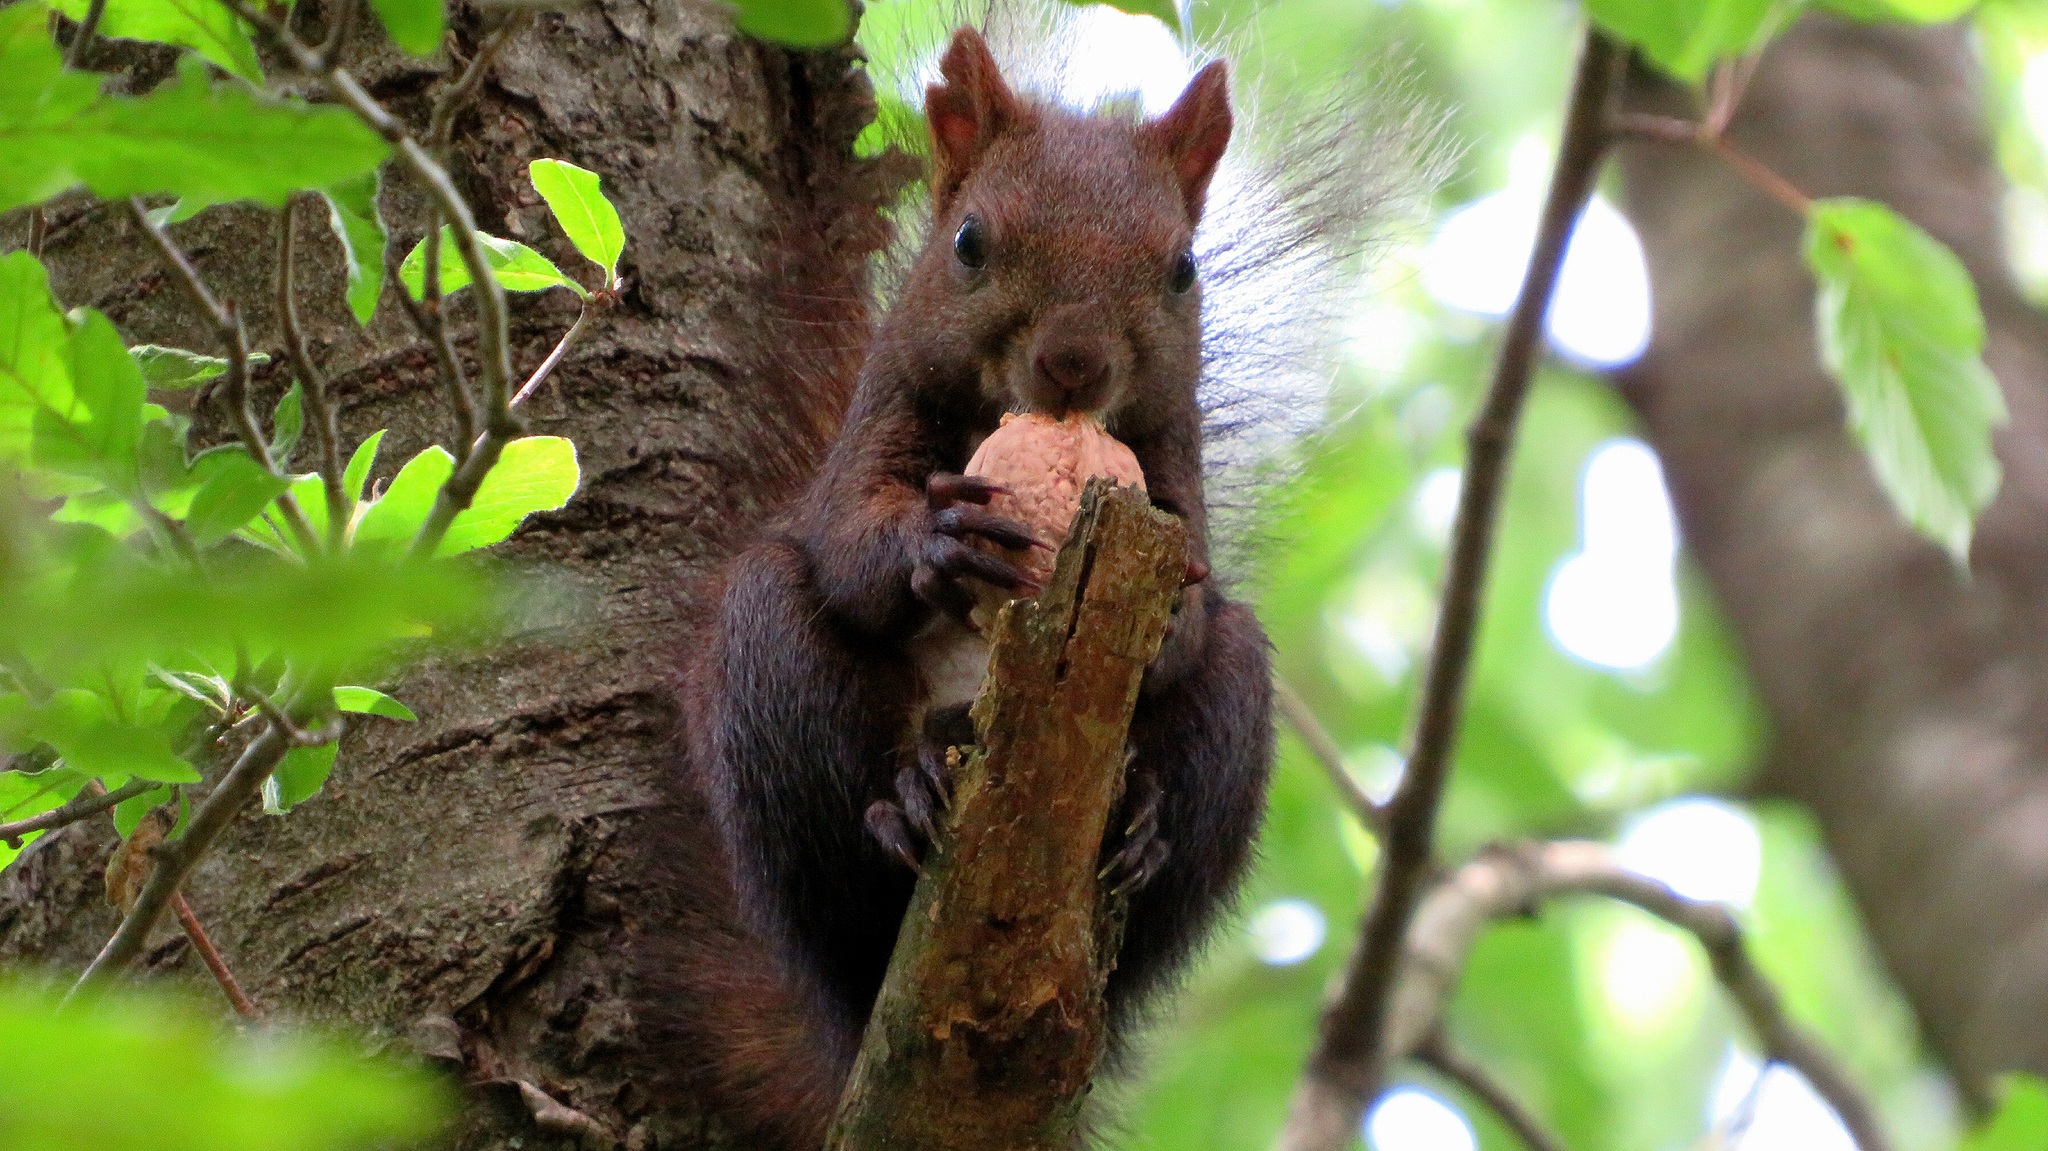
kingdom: Animalia
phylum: Chordata
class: Mammalia
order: Rodentia
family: Sciuridae
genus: Sciurus
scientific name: Sciurus vulgaris
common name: Eurasian red squirrel
